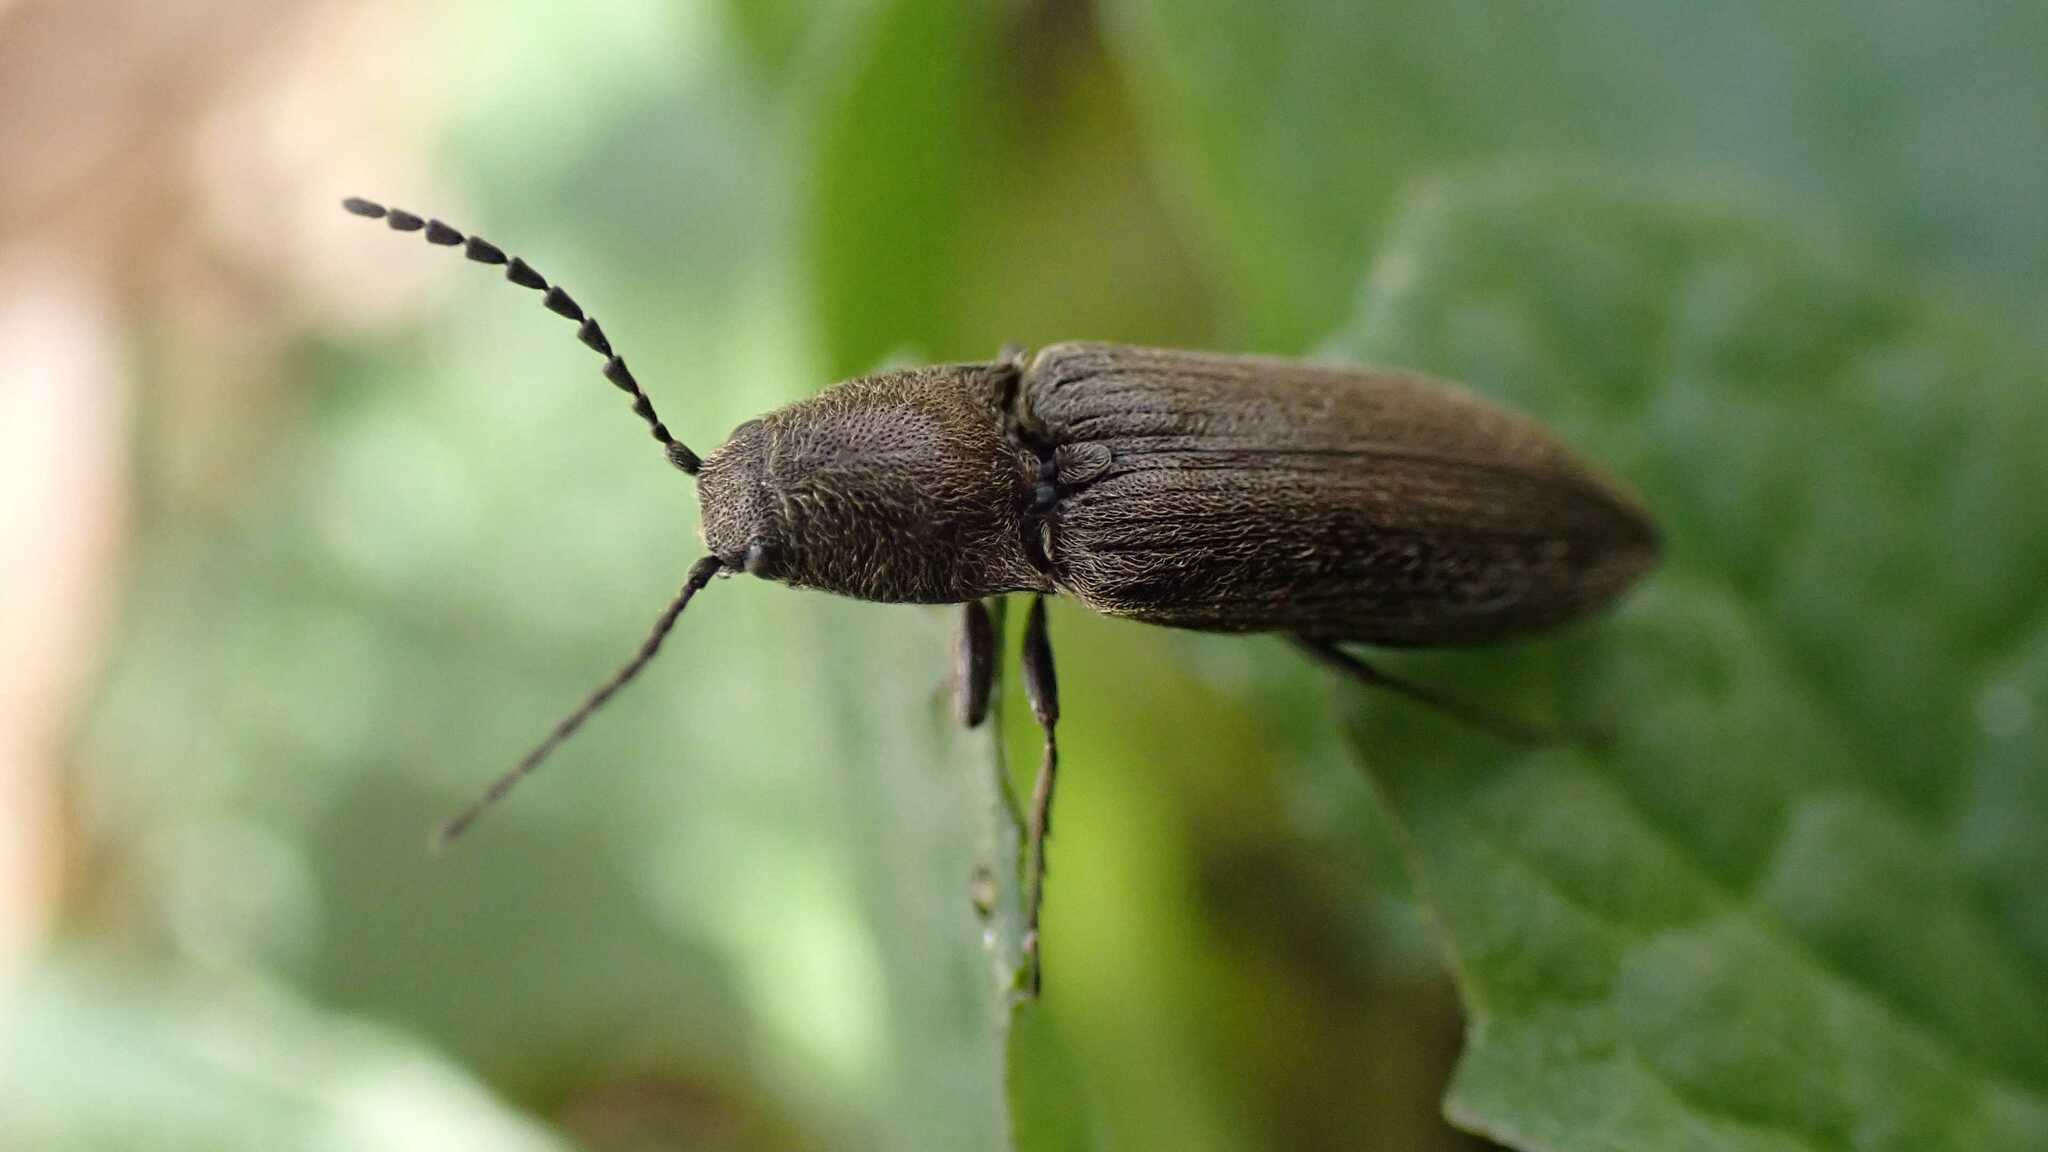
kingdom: Animalia
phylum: Arthropoda
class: Insecta
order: Coleoptera
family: Elateridae
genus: Cidnopus
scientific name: Cidnopus aeruginosus
